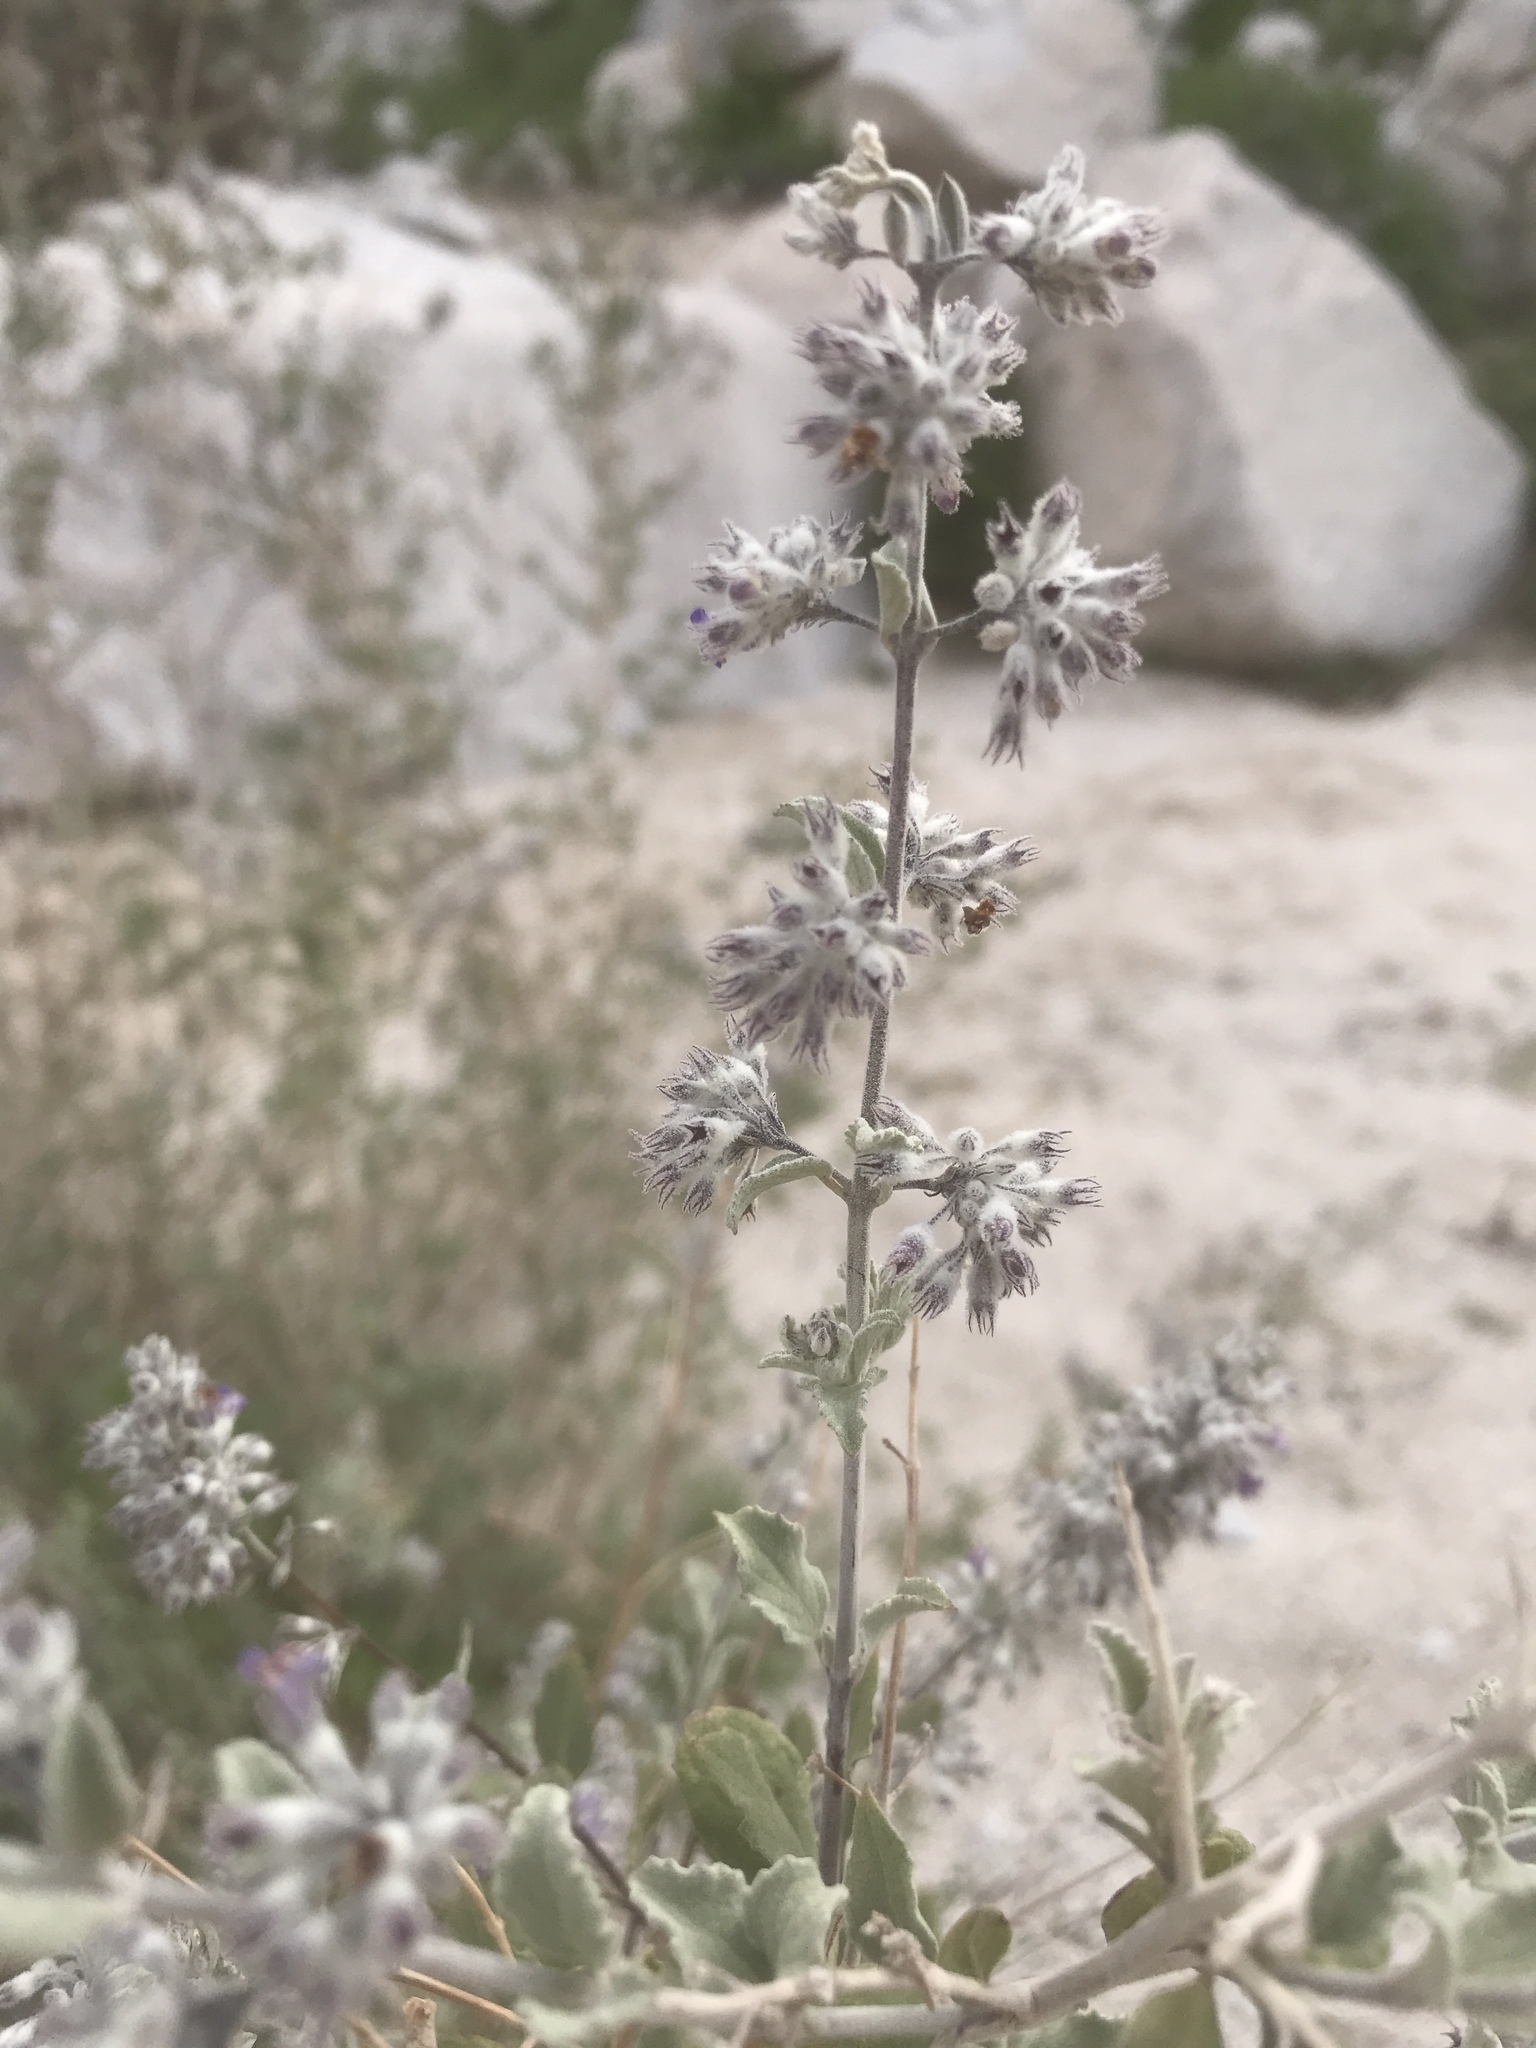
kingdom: Plantae
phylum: Tracheophyta
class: Magnoliopsida
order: Lamiales
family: Lamiaceae
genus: Condea
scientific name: Condea emoryi
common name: Chia
